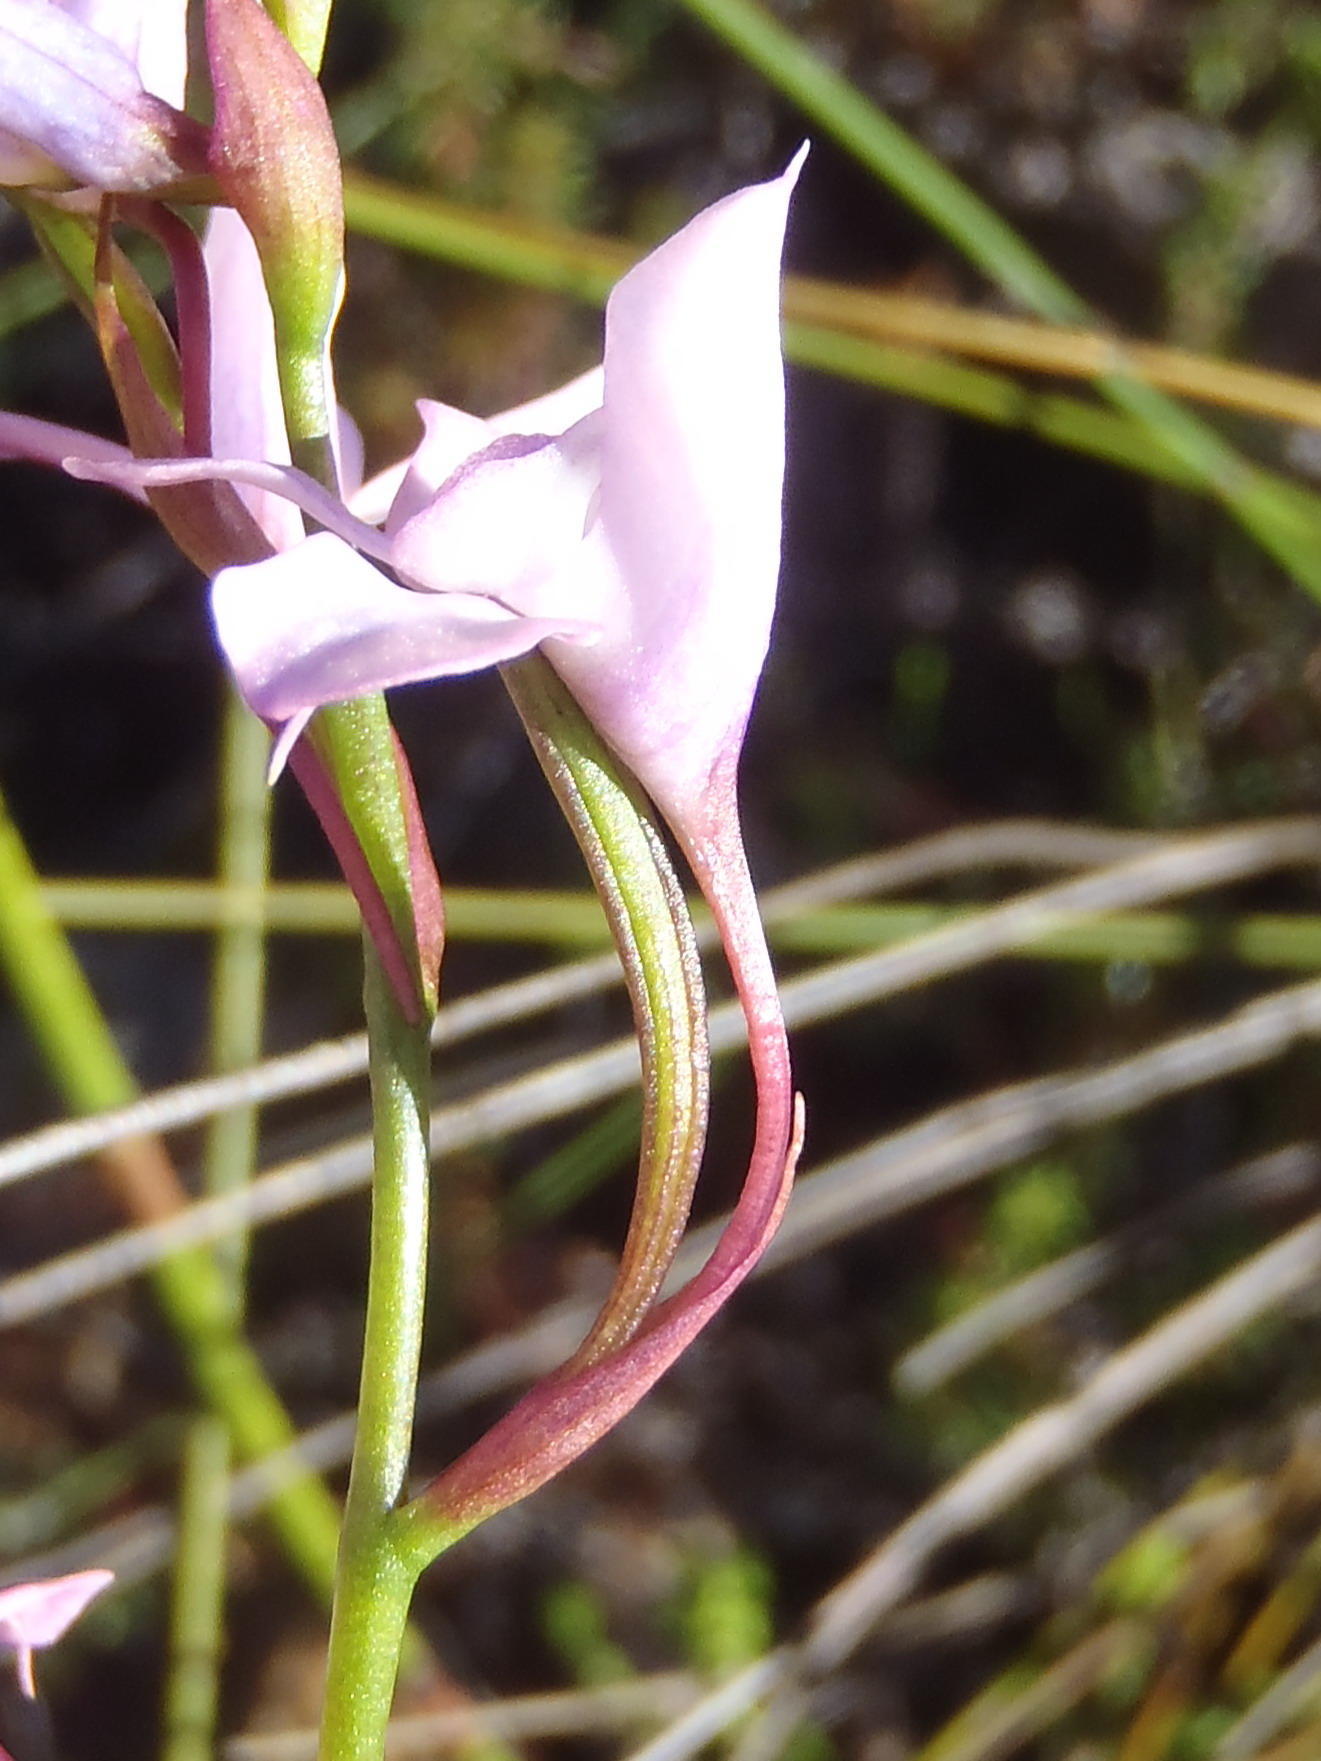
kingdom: Plantae
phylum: Tracheophyta
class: Liliopsida
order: Asparagales
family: Orchidaceae
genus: Disa
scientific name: Disa arida
